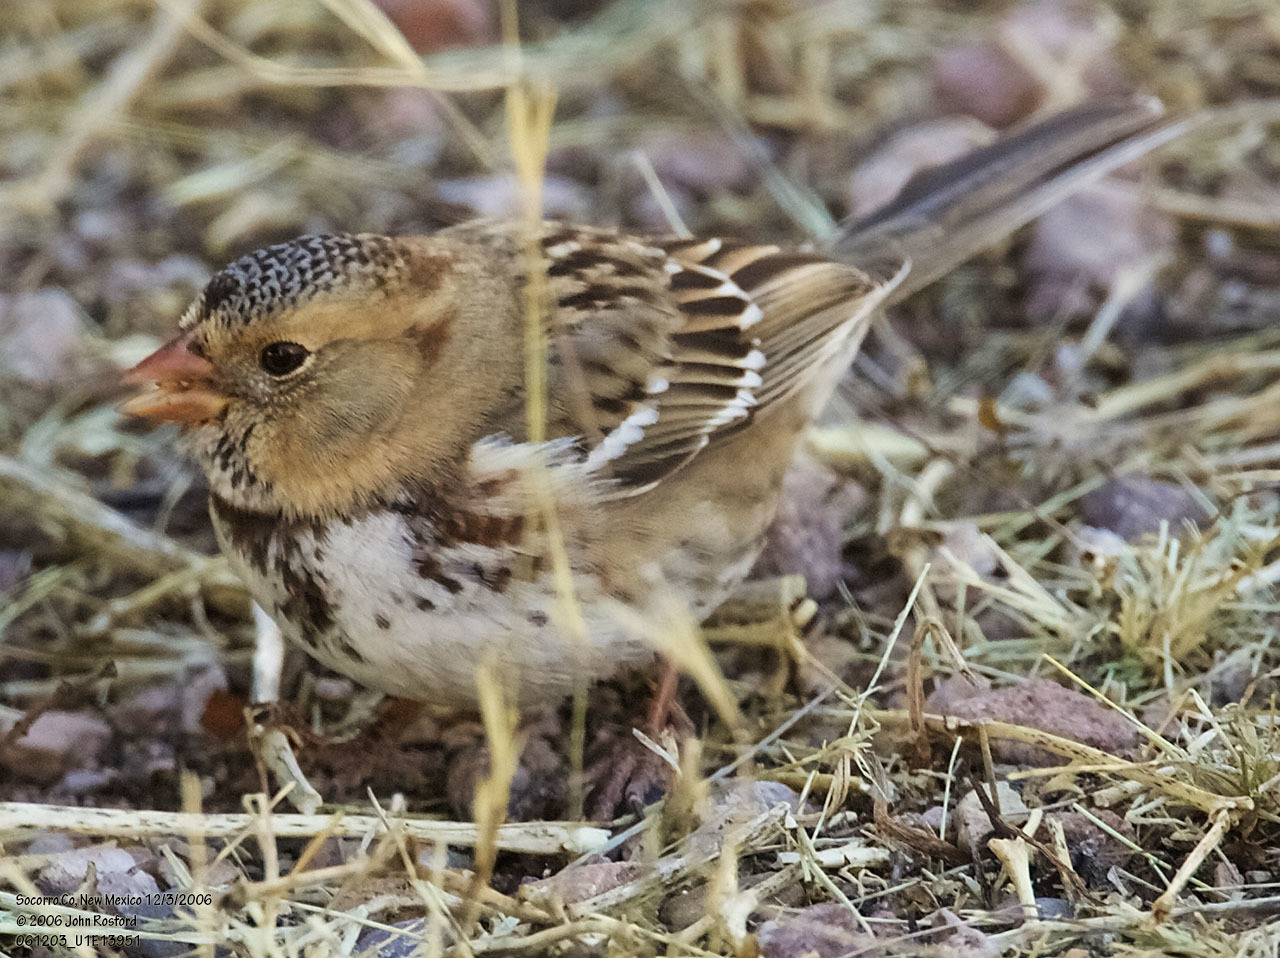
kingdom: Animalia
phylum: Chordata
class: Aves
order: Passeriformes
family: Passerellidae
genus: Zonotrichia
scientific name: Zonotrichia querula
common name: Harris's sparrow
